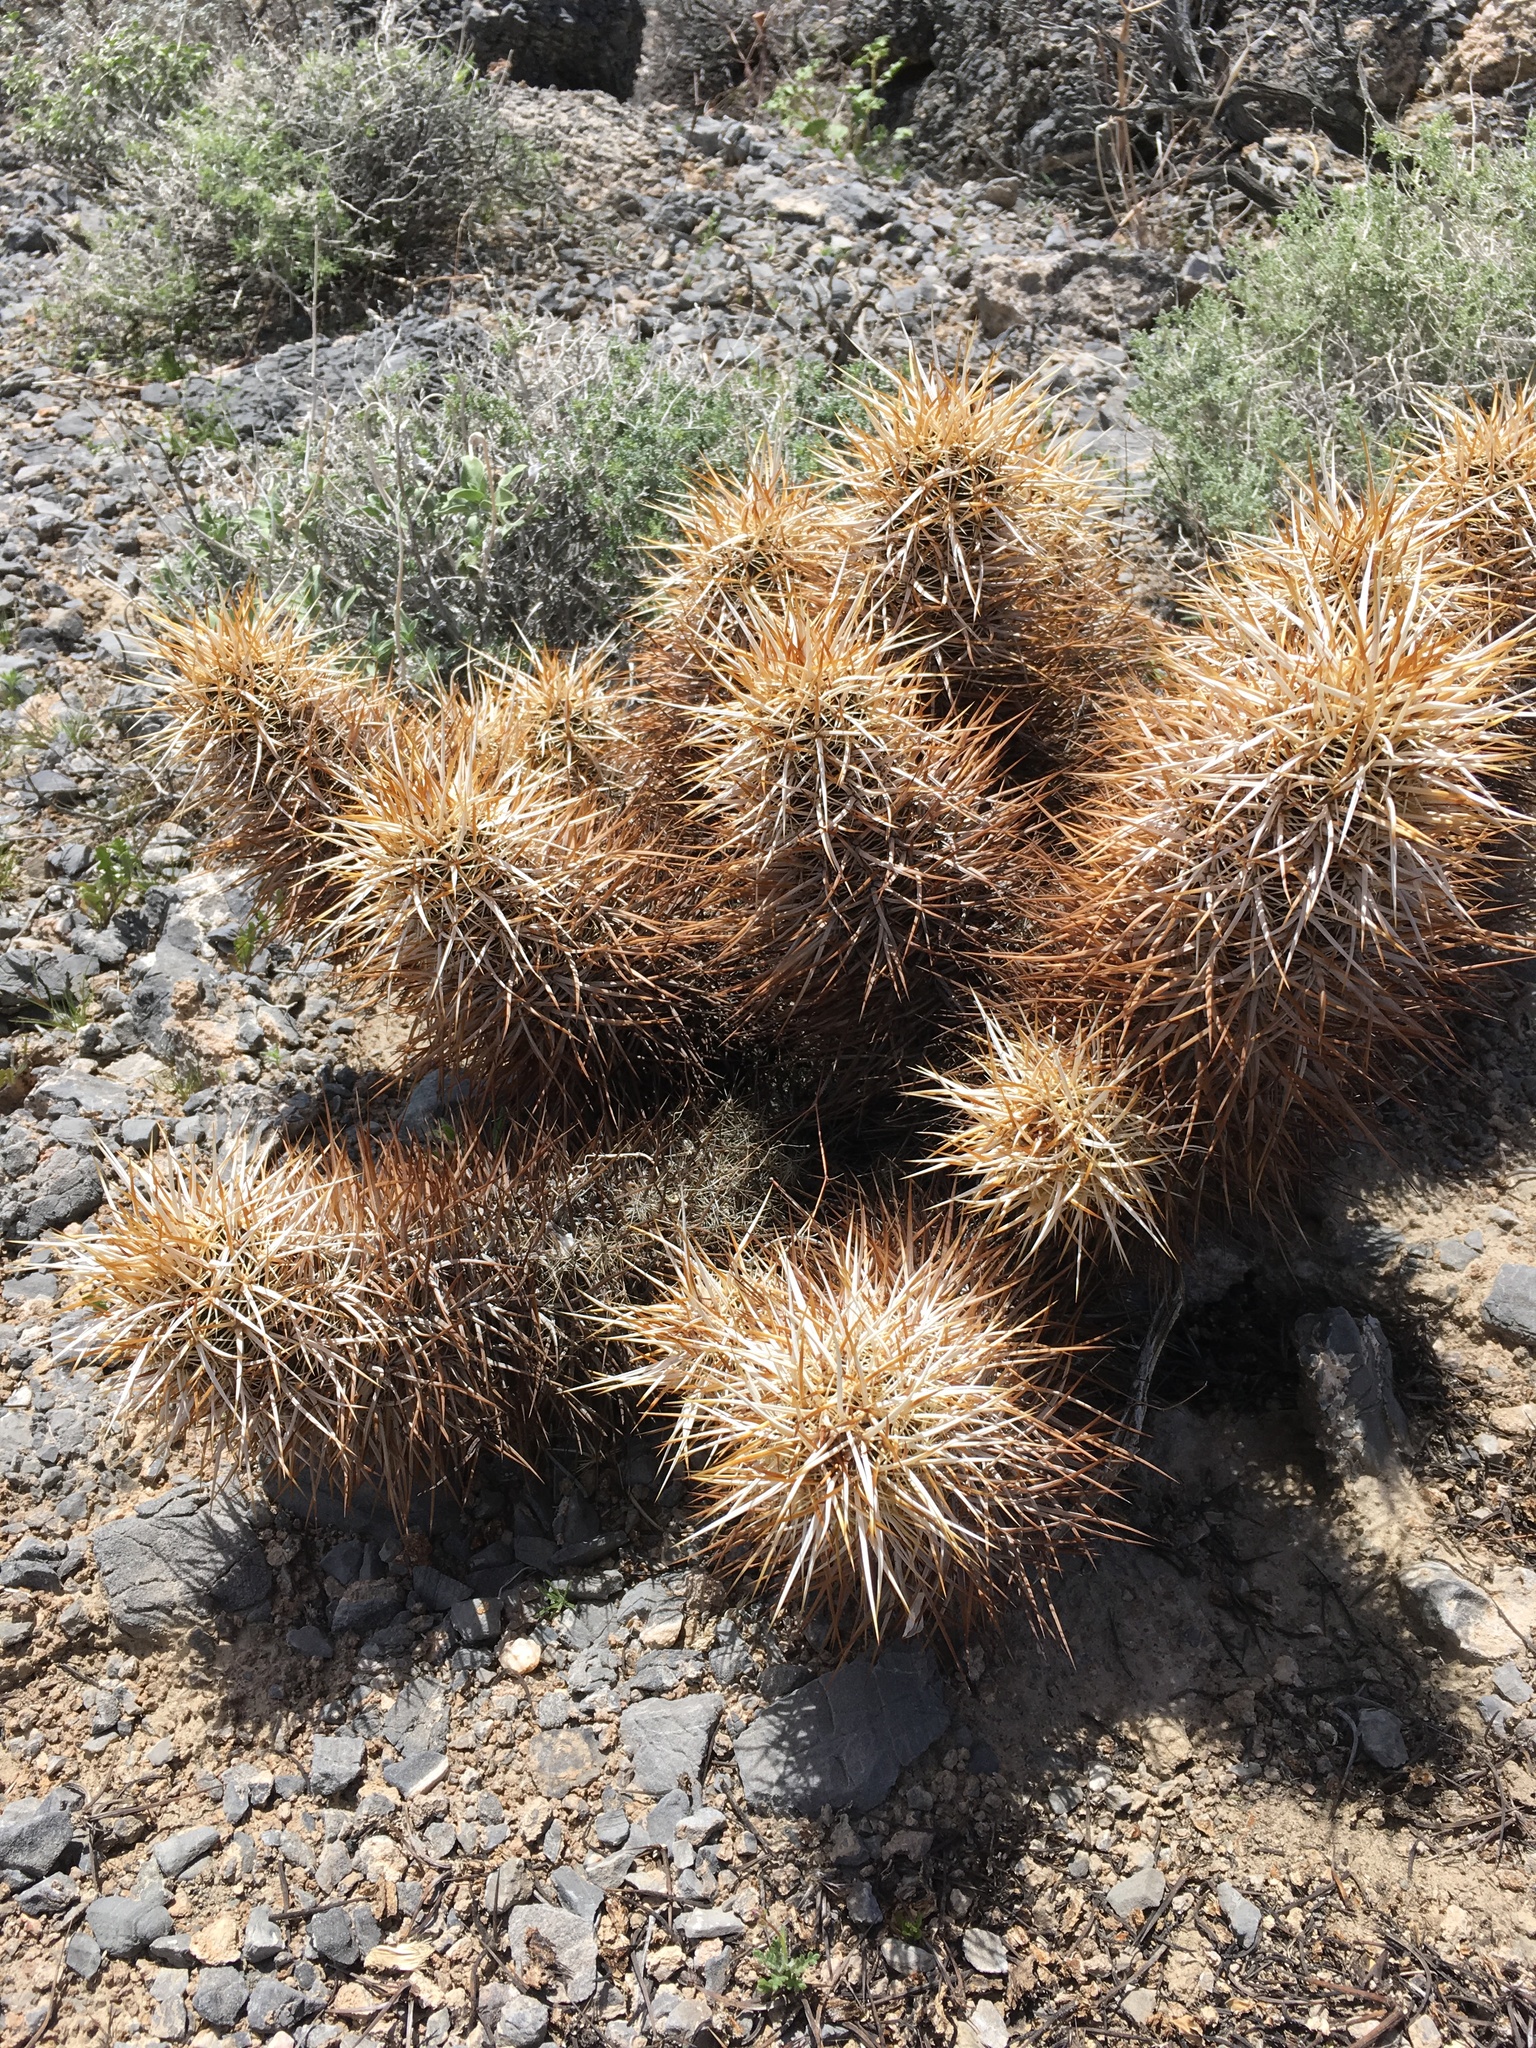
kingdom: Plantae
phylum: Tracheophyta
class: Magnoliopsida
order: Caryophyllales
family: Cactaceae
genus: Echinocereus
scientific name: Echinocereus engelmannii
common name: Engelmann's hedgehog cactus
